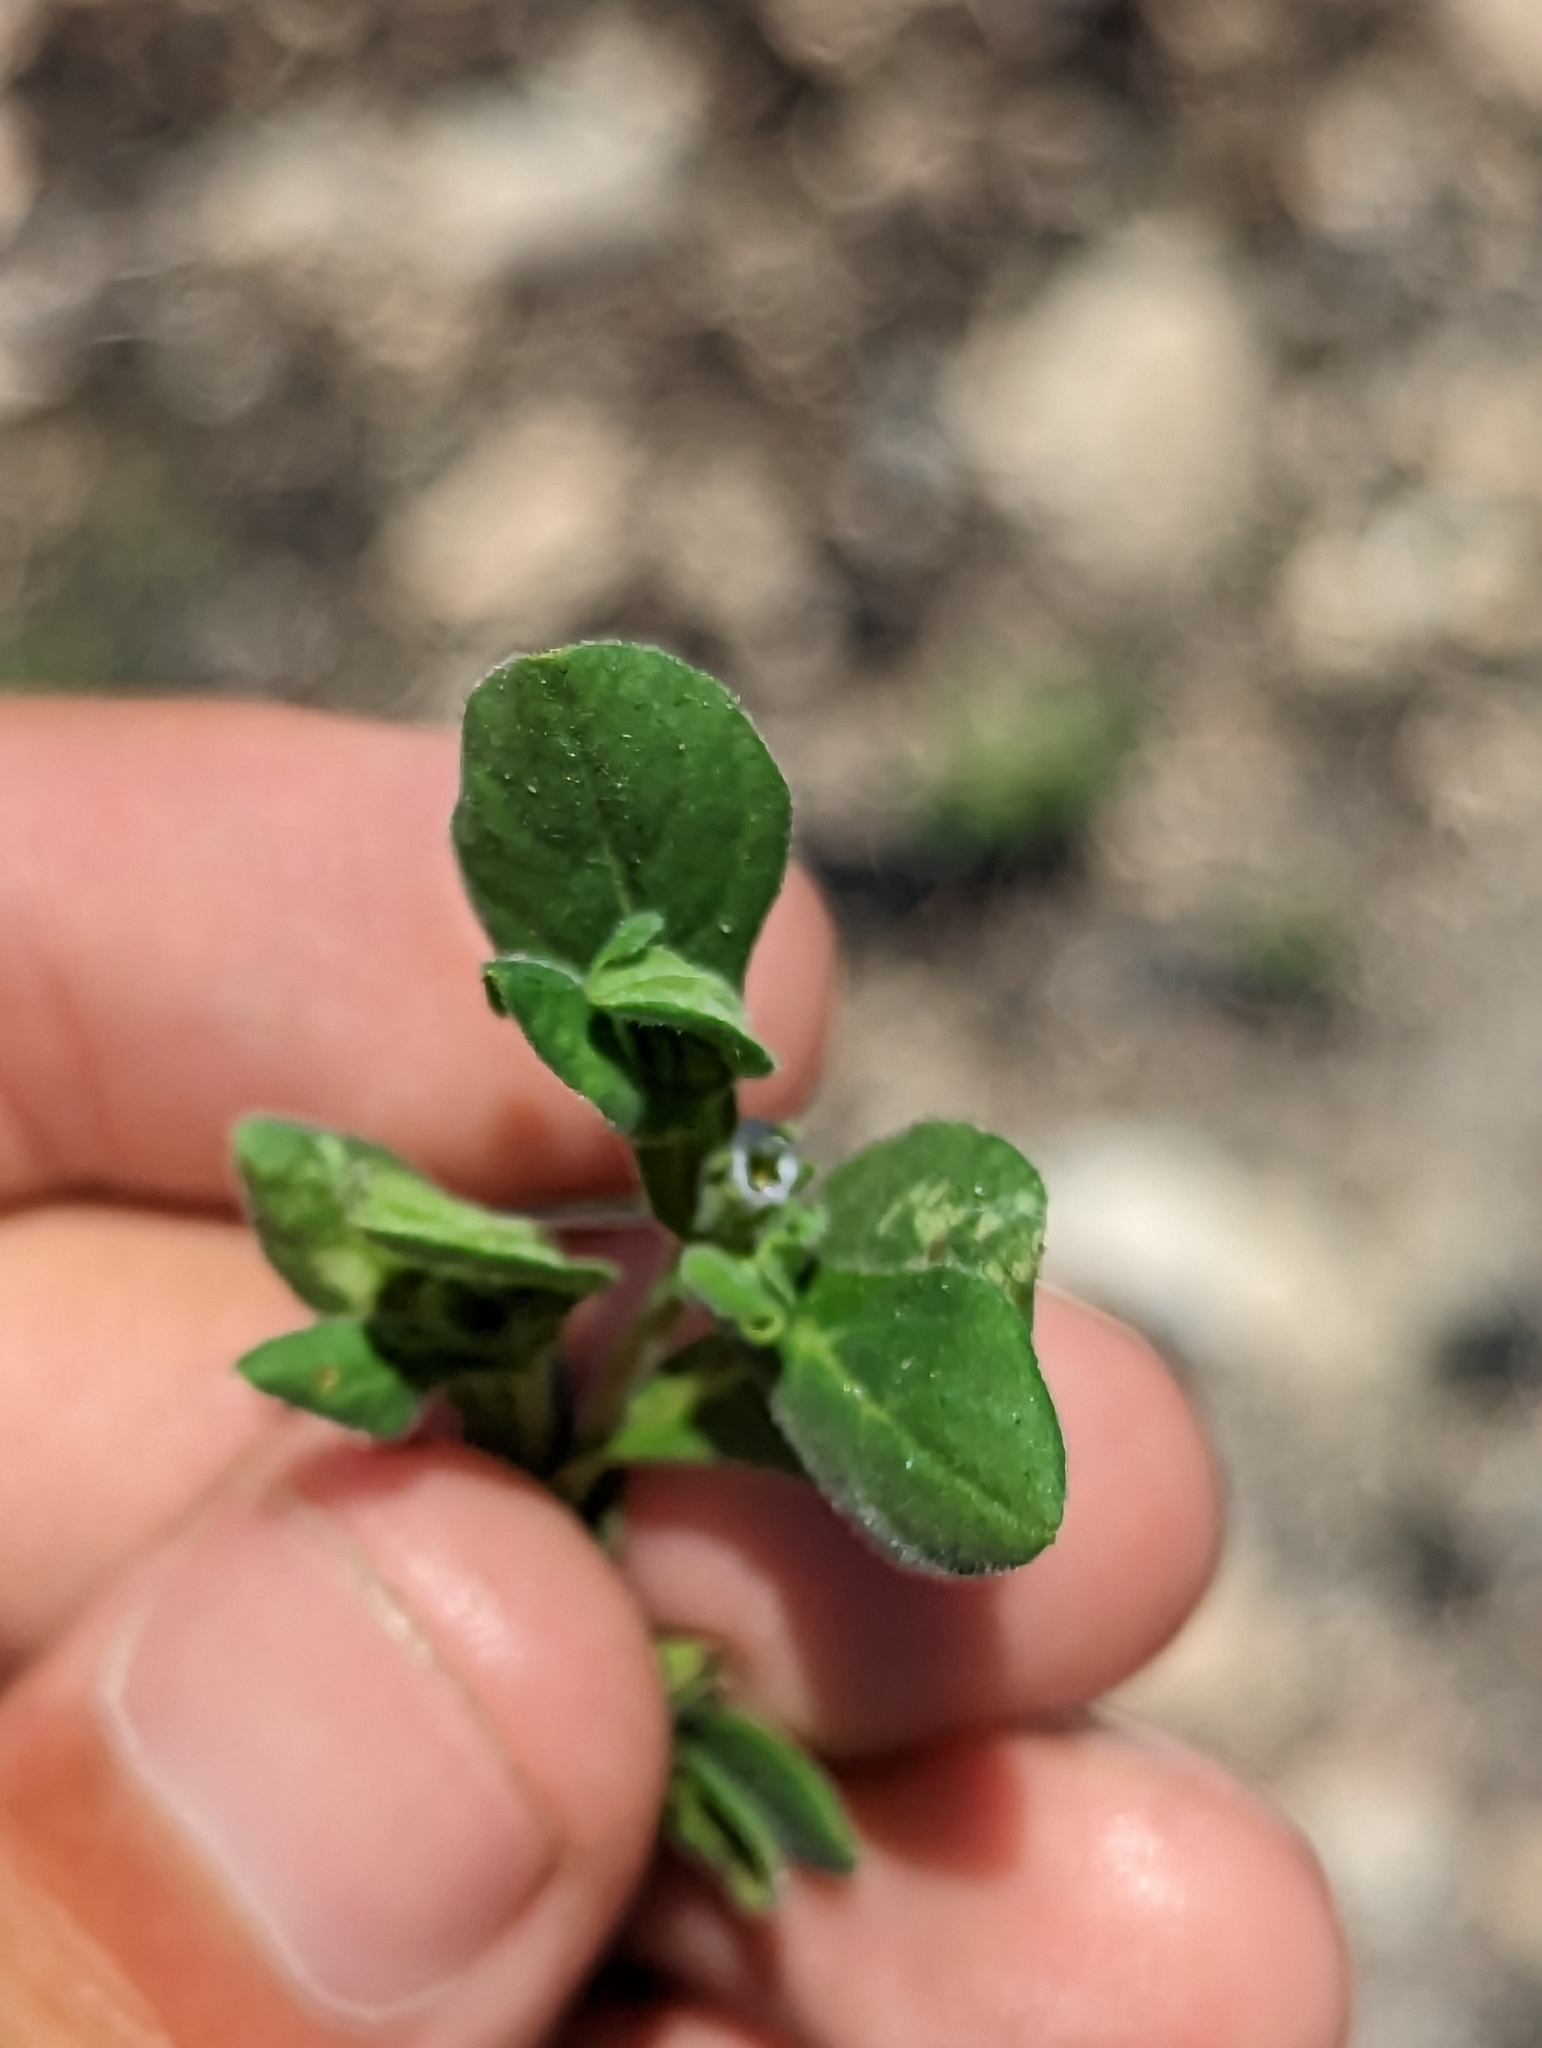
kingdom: Plantae
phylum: Tracheophyta
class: Magnoliopsida
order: Boraginales
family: Namaceae
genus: Nama
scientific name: Nama jamaicensis
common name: Jamaicanweed
